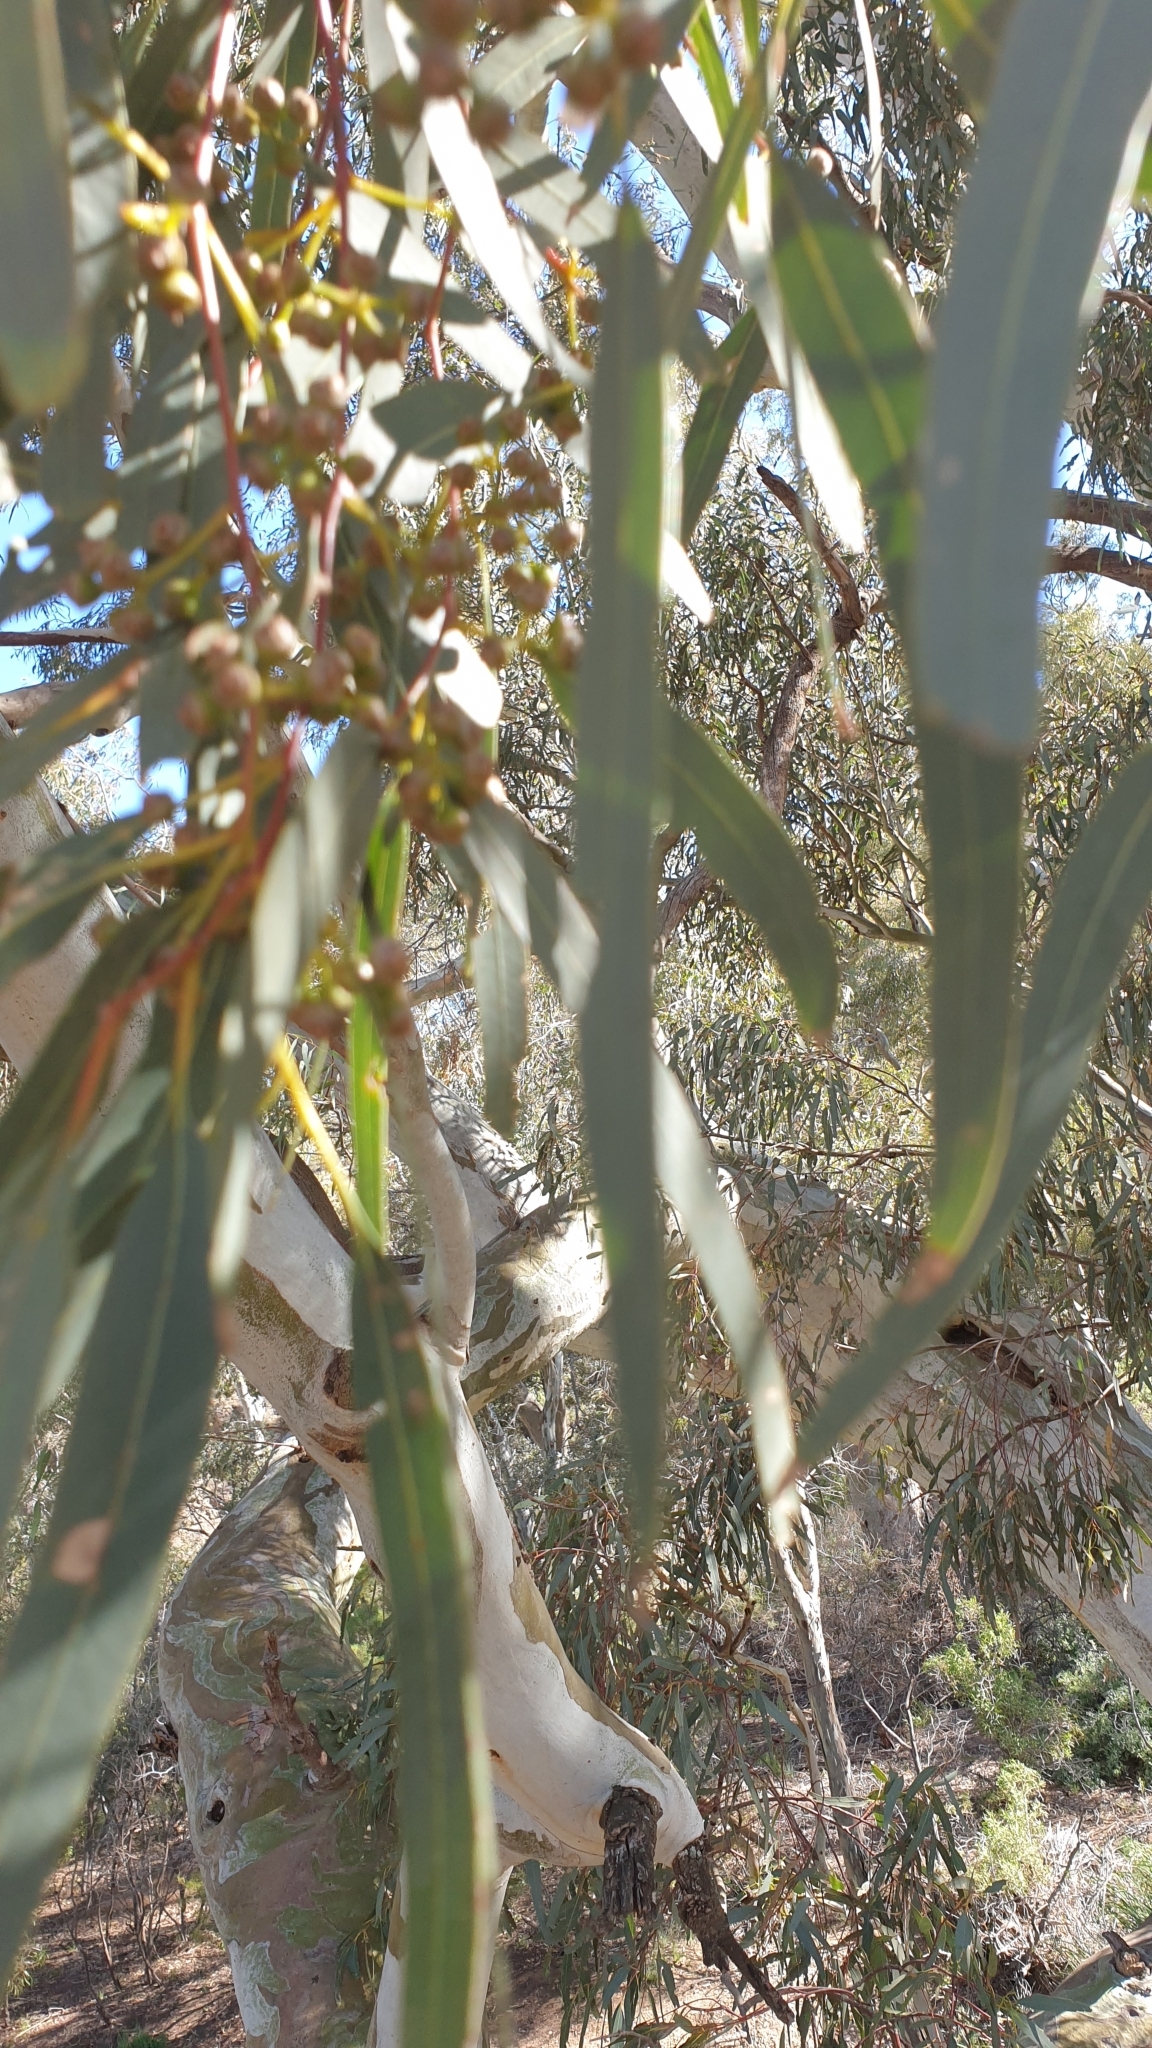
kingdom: Plantae
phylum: Tracheophyta
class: Magnoliopsida
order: Myrtales
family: Myrtaceae
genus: Eucalyptus
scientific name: Eucalyptus camaldulensis
